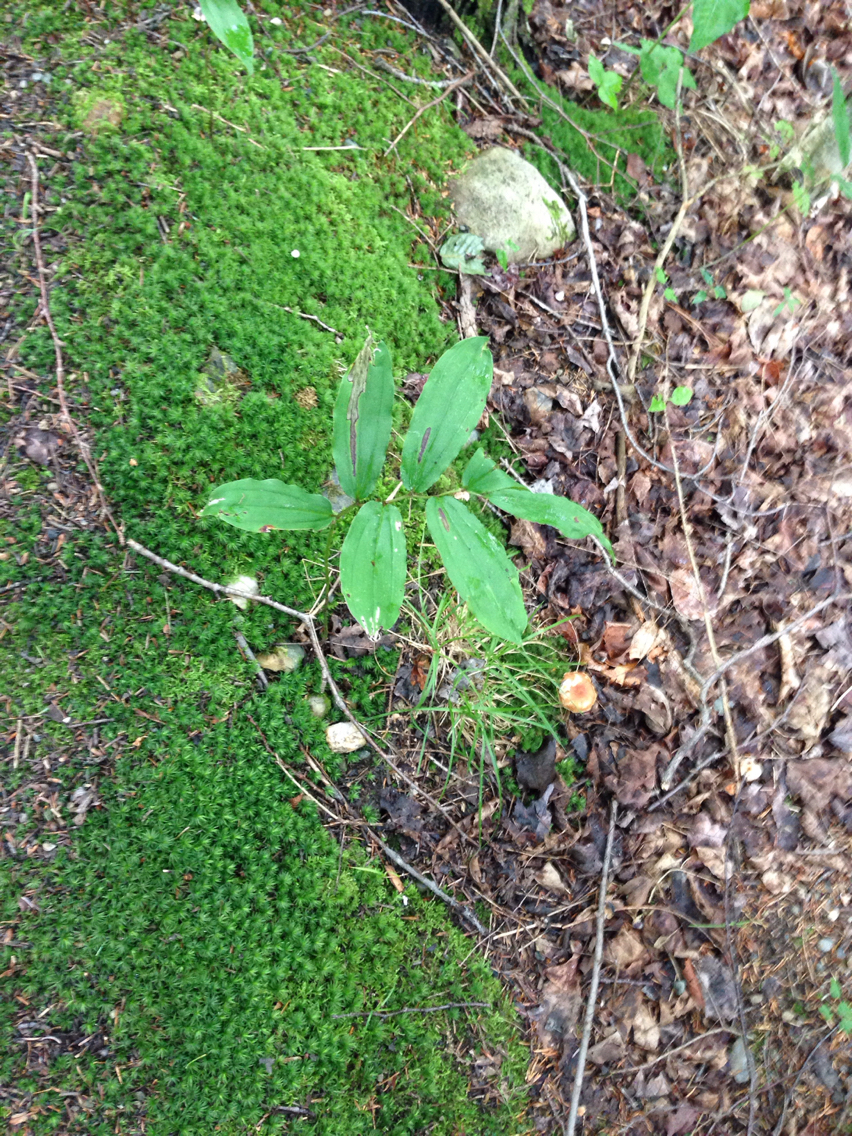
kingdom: Plantae
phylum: Tracheophyta
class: Liliopsida
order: Asparagales
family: Asparagaceae
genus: Maianthemum
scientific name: Maianthemum racemosum
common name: False spikenard
